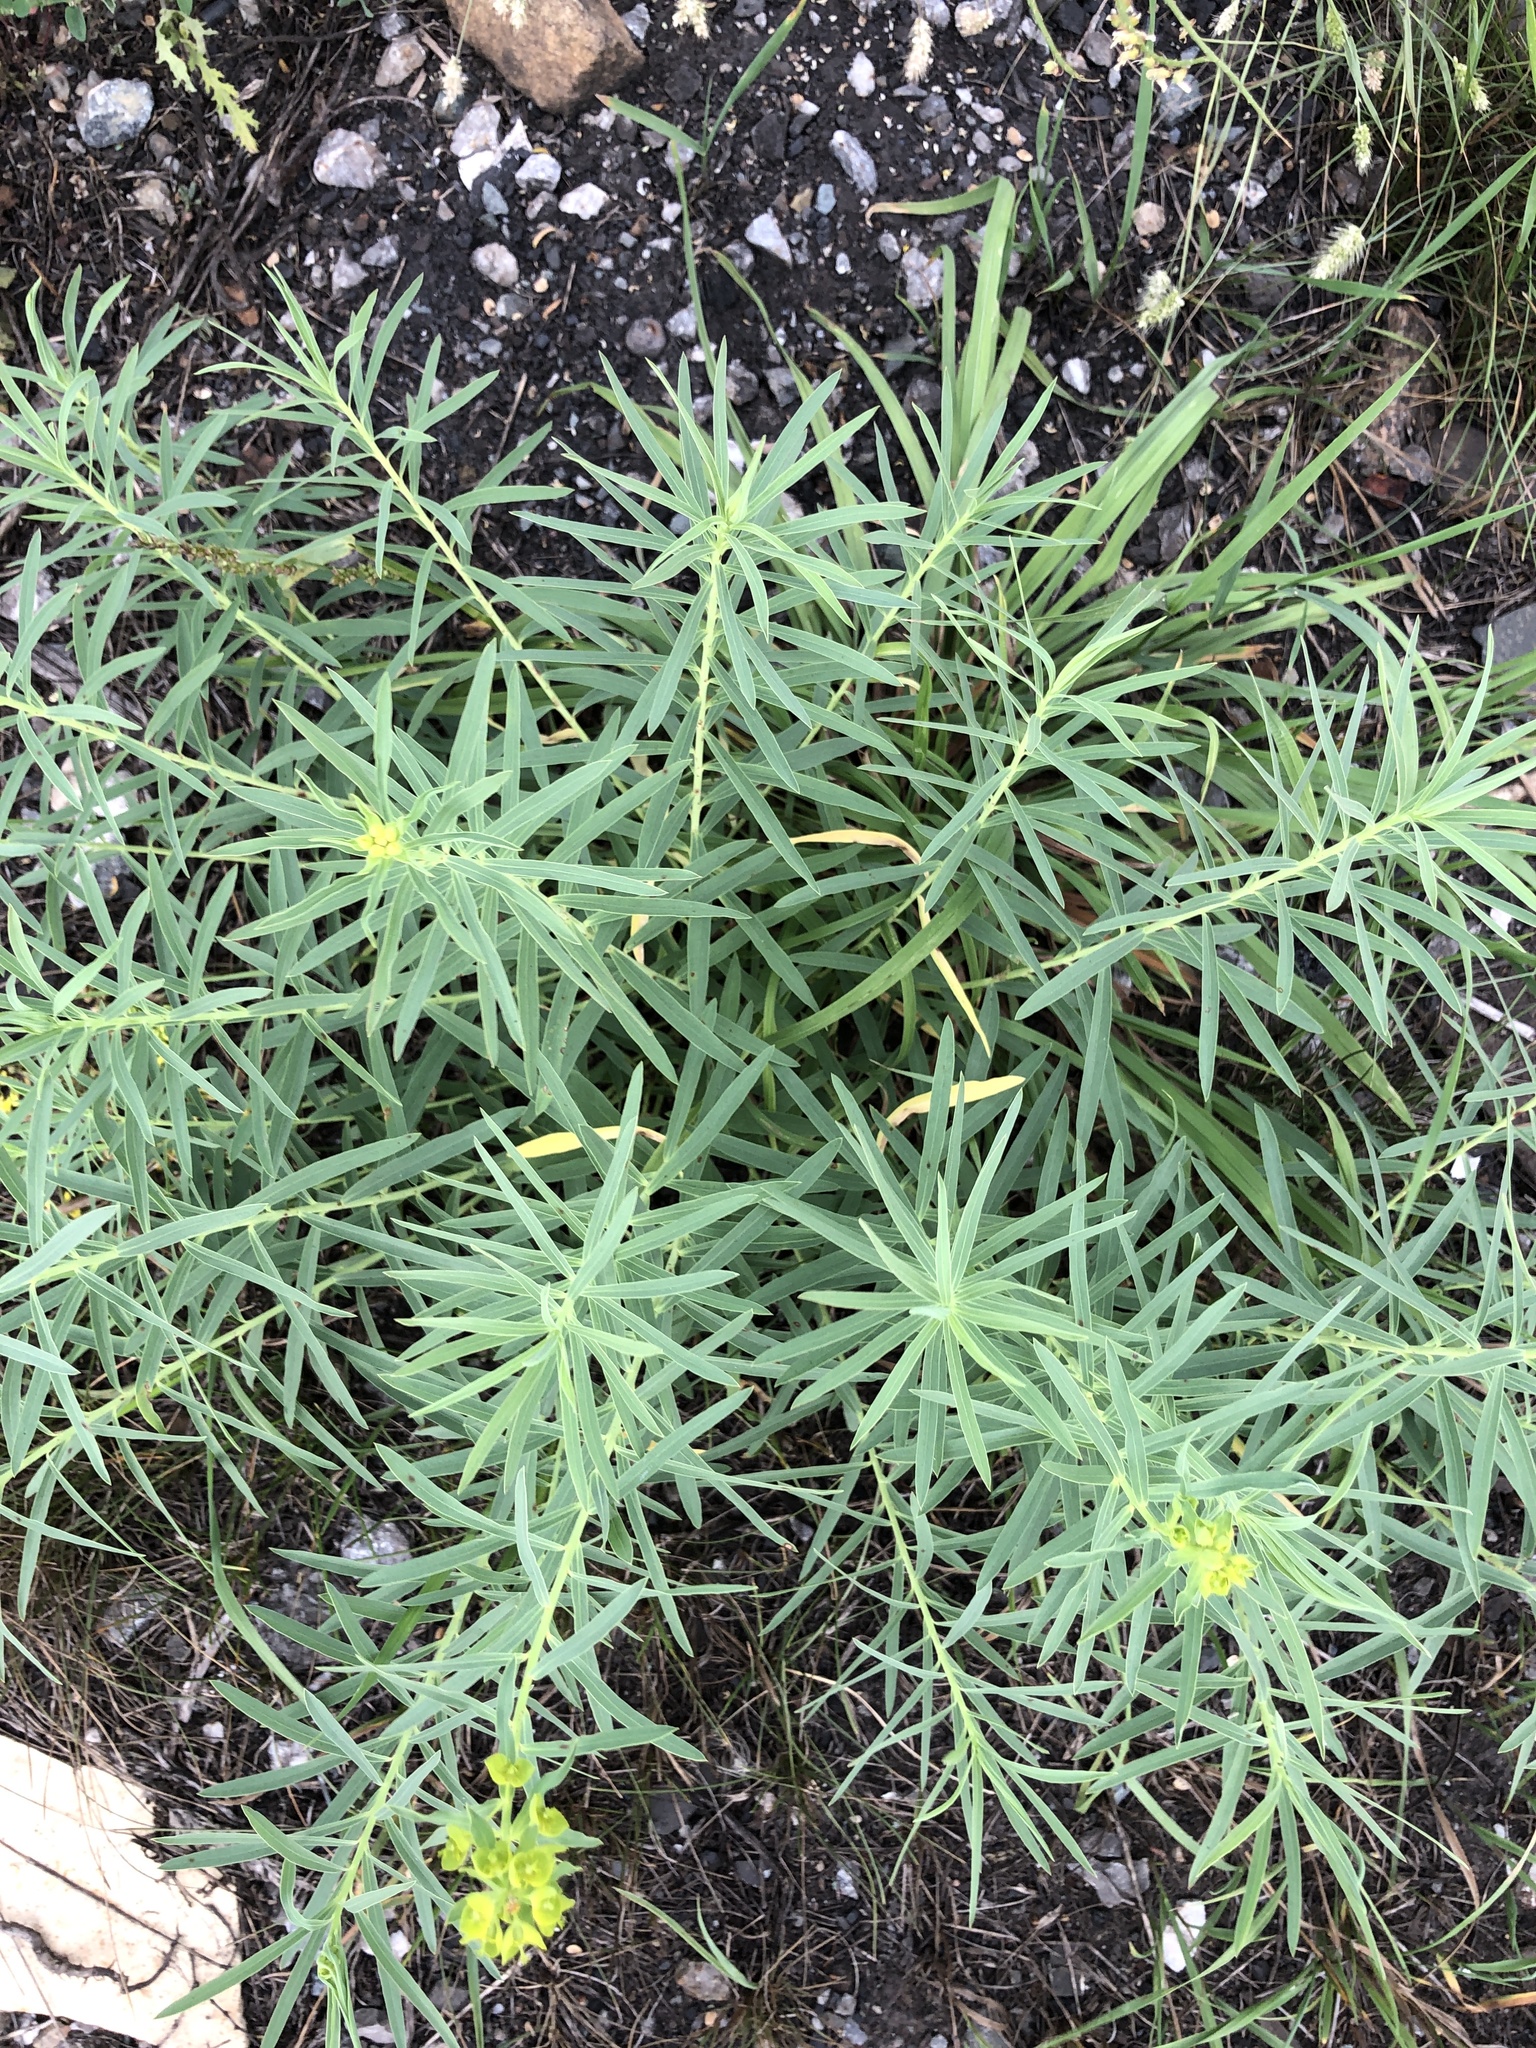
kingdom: Plantae
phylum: Tracheophyta
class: Magnoliopsida
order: Malpighiales
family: Euphorbiaceae
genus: Euphorbia
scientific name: Euphorbia virgata
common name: Leafy spurge
